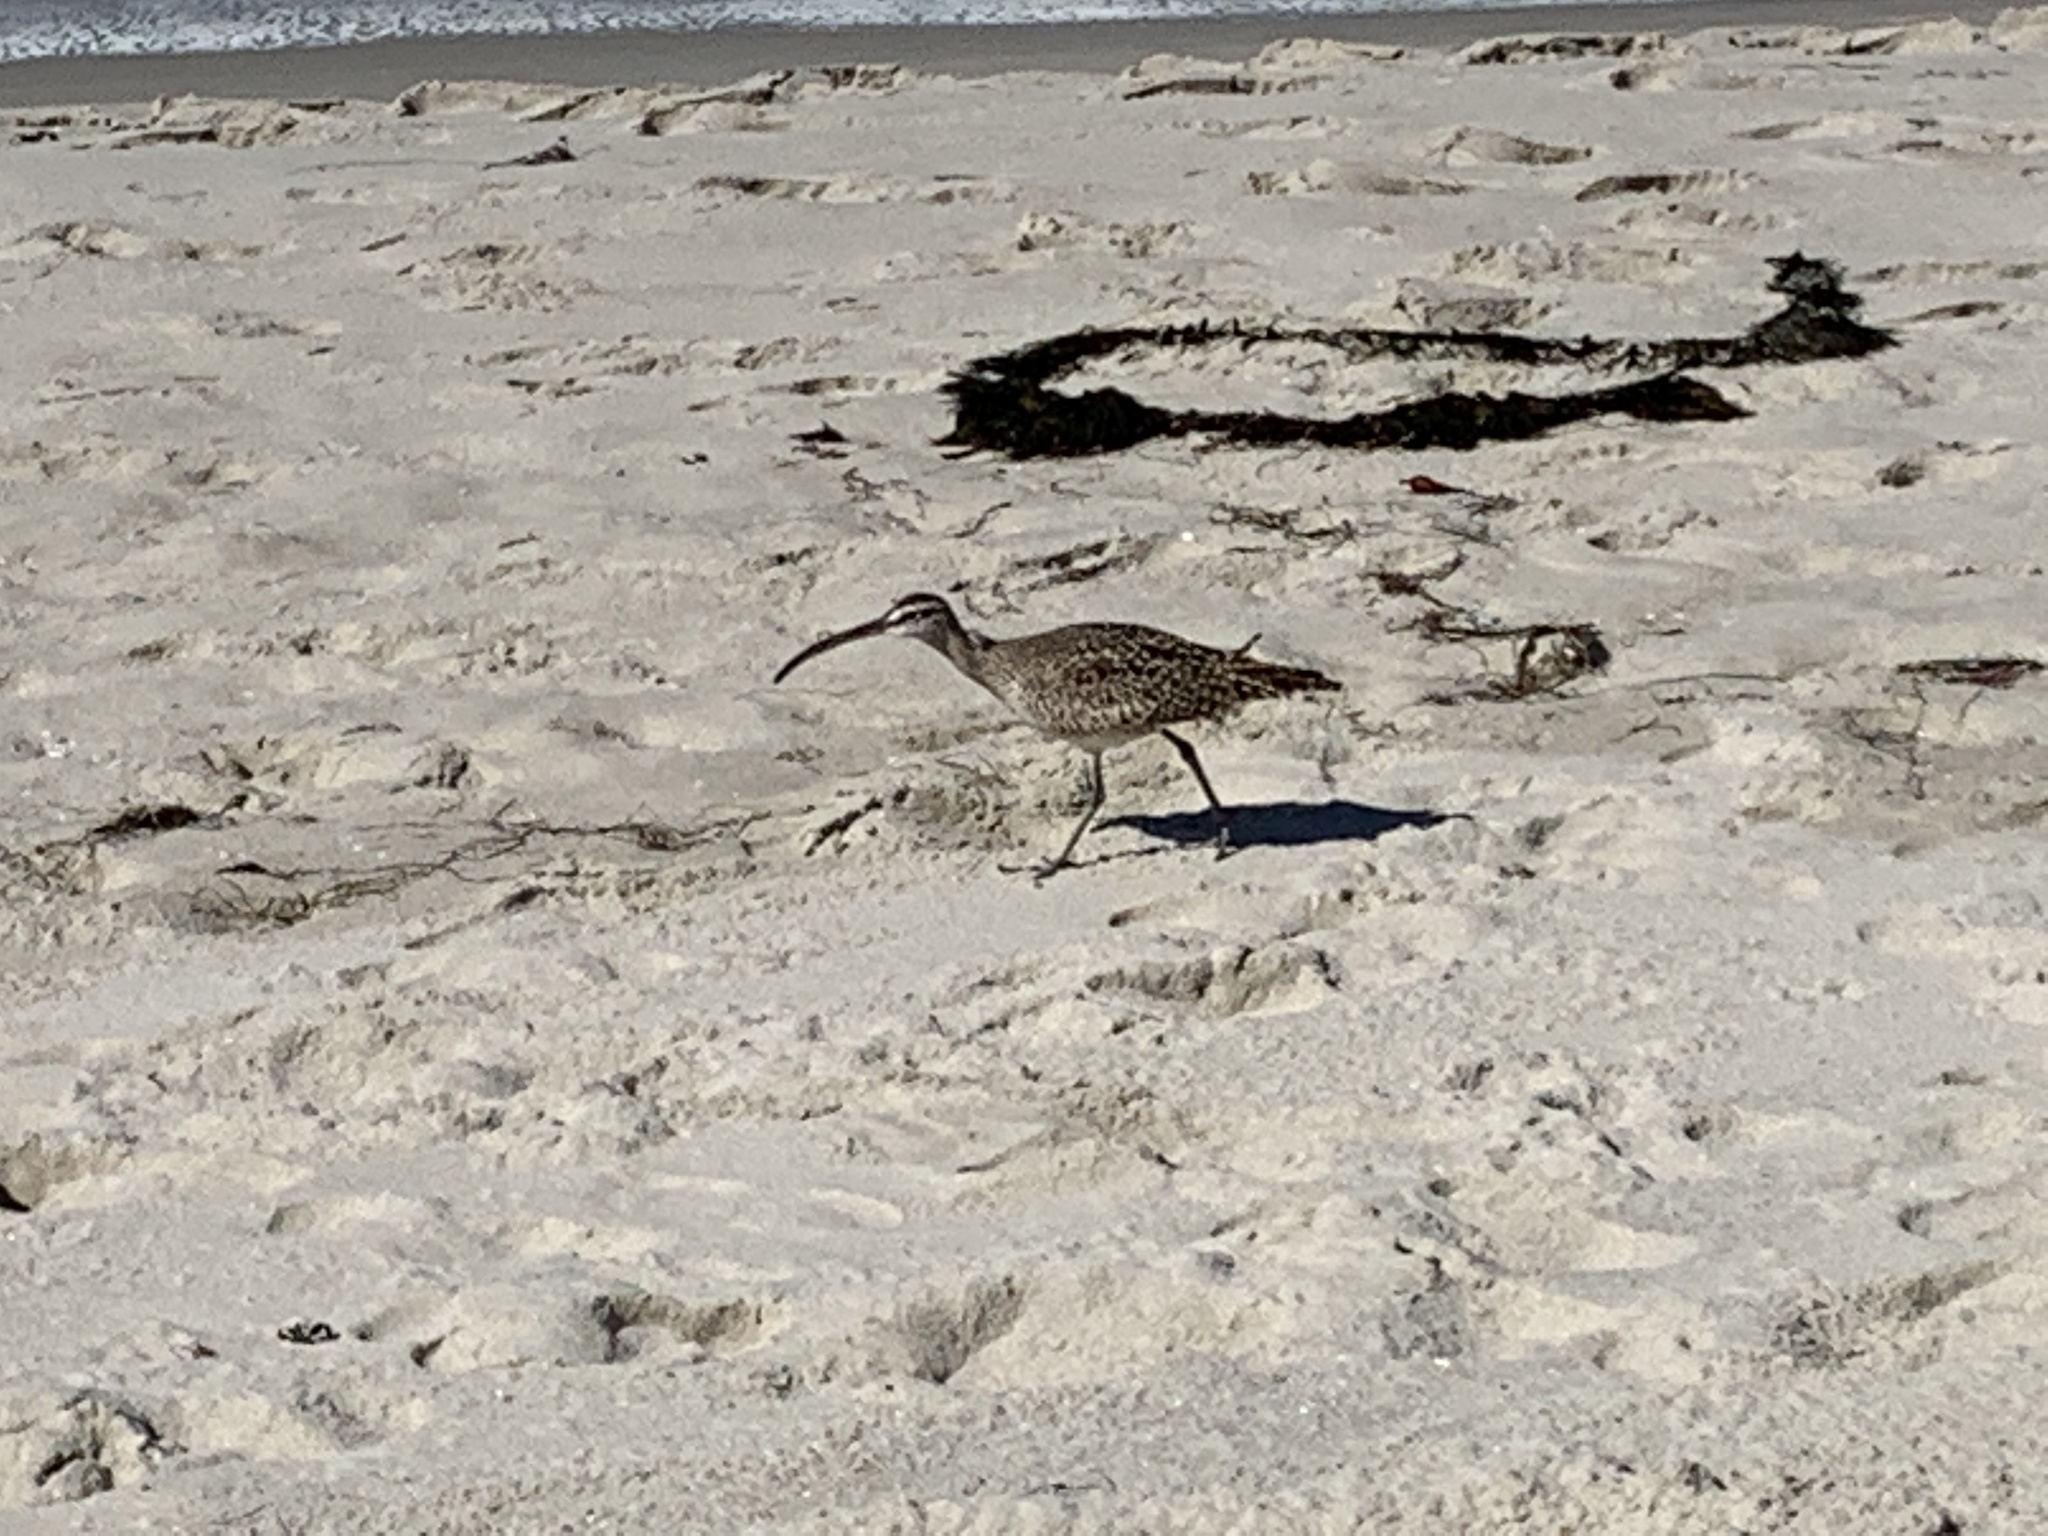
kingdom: Animalia
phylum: Chordata
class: Aves
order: Charadriiformes
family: Scolopacidae
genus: Numenius
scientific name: Numenius phaeopus
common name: Whimbrel
